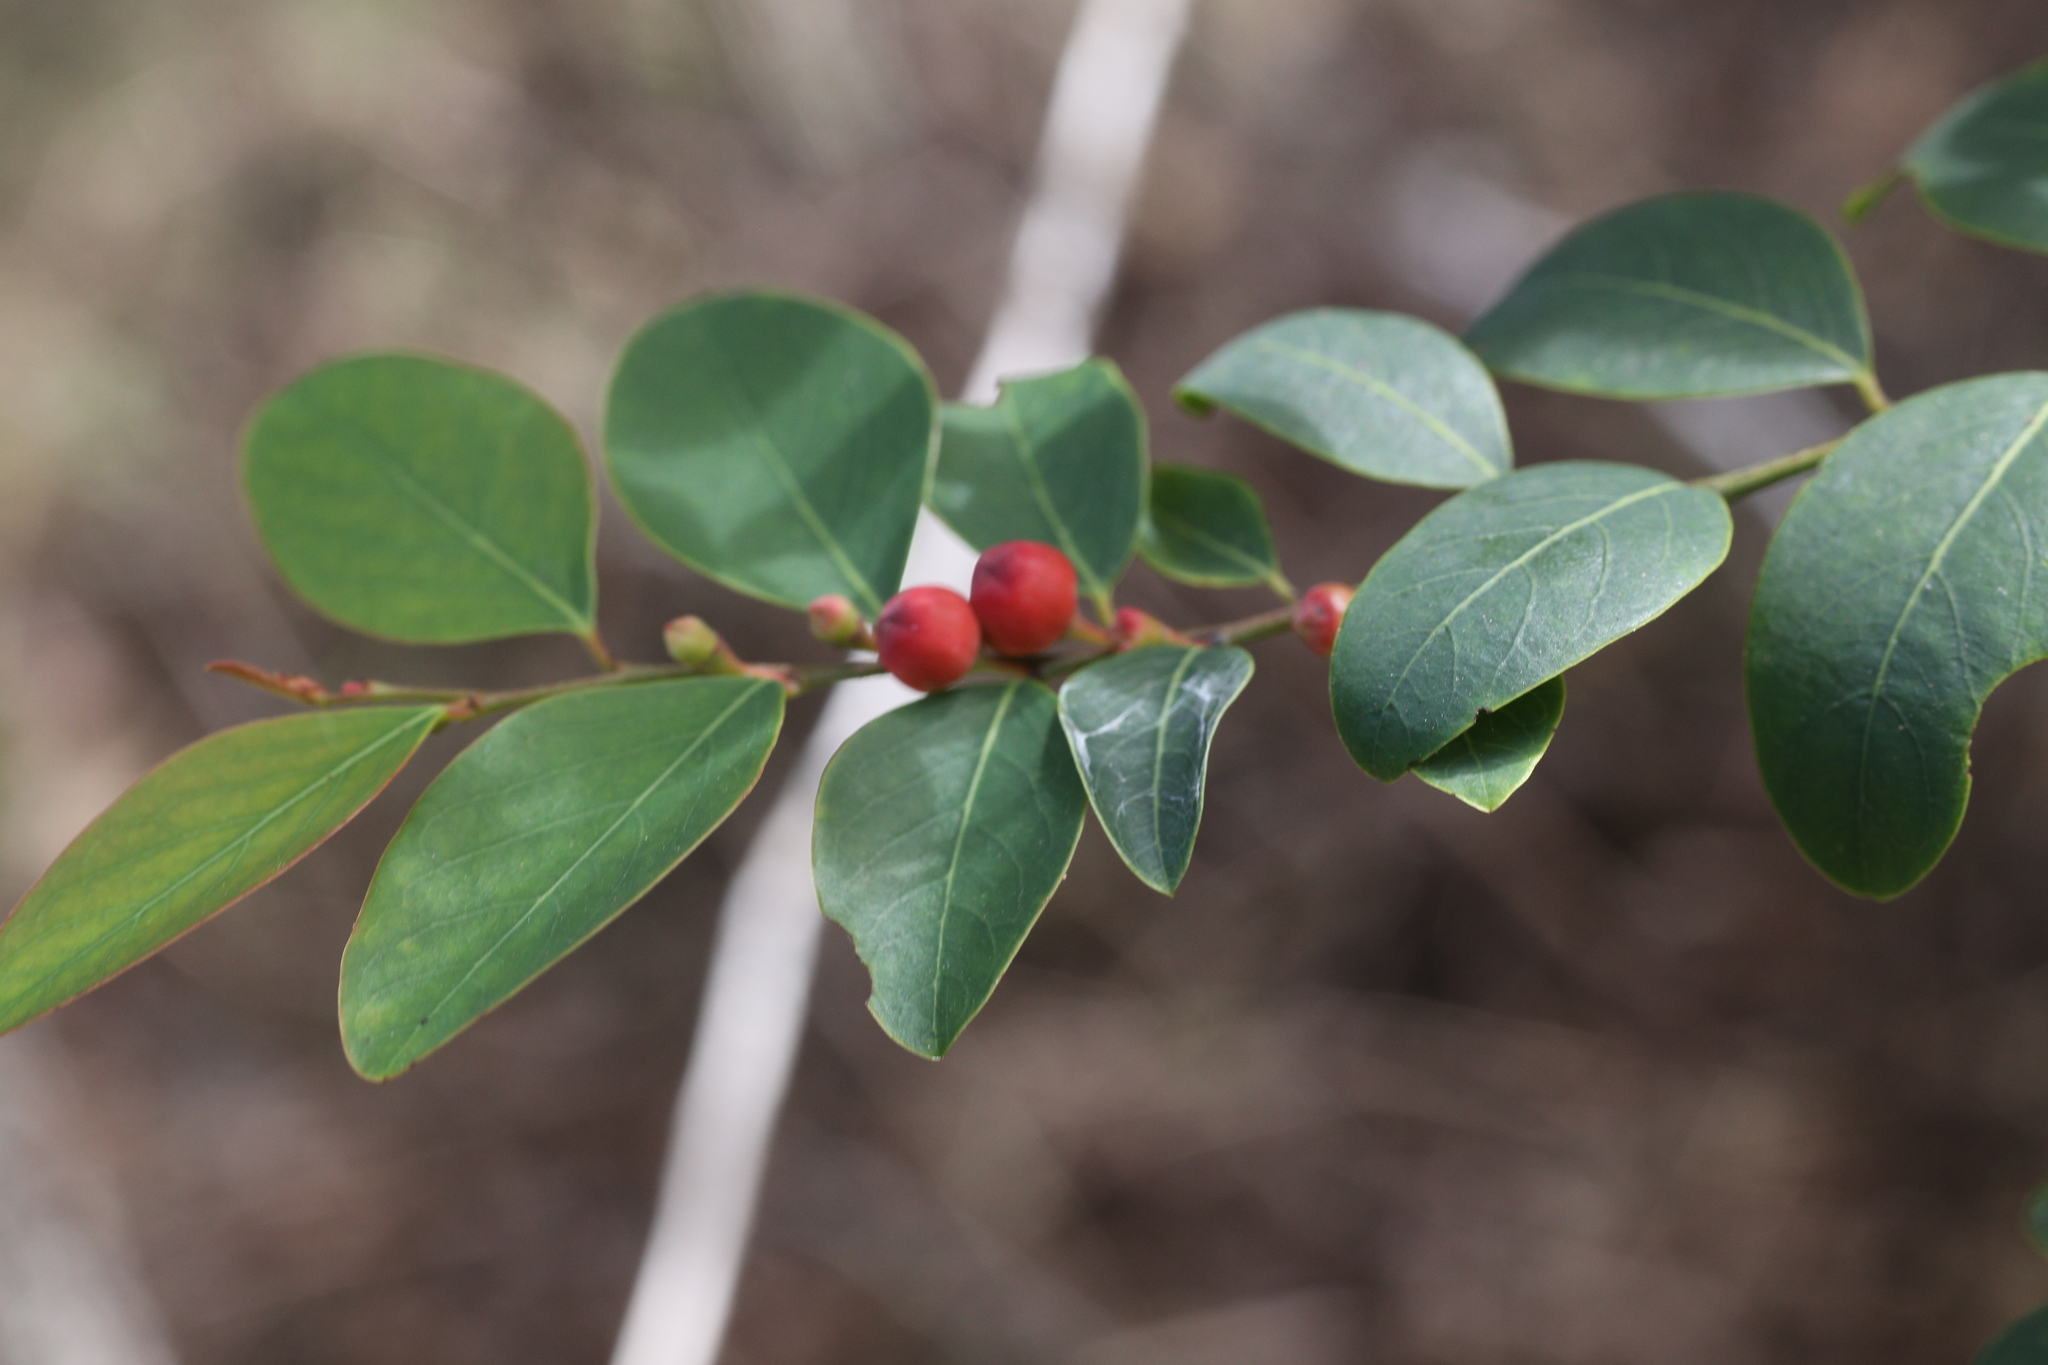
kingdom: Plantae
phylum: Tracheophyta
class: Magnoliopsida
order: Malpighiales
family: Phyllanthaceae
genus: Breynia
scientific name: Breynia oblongifolia
